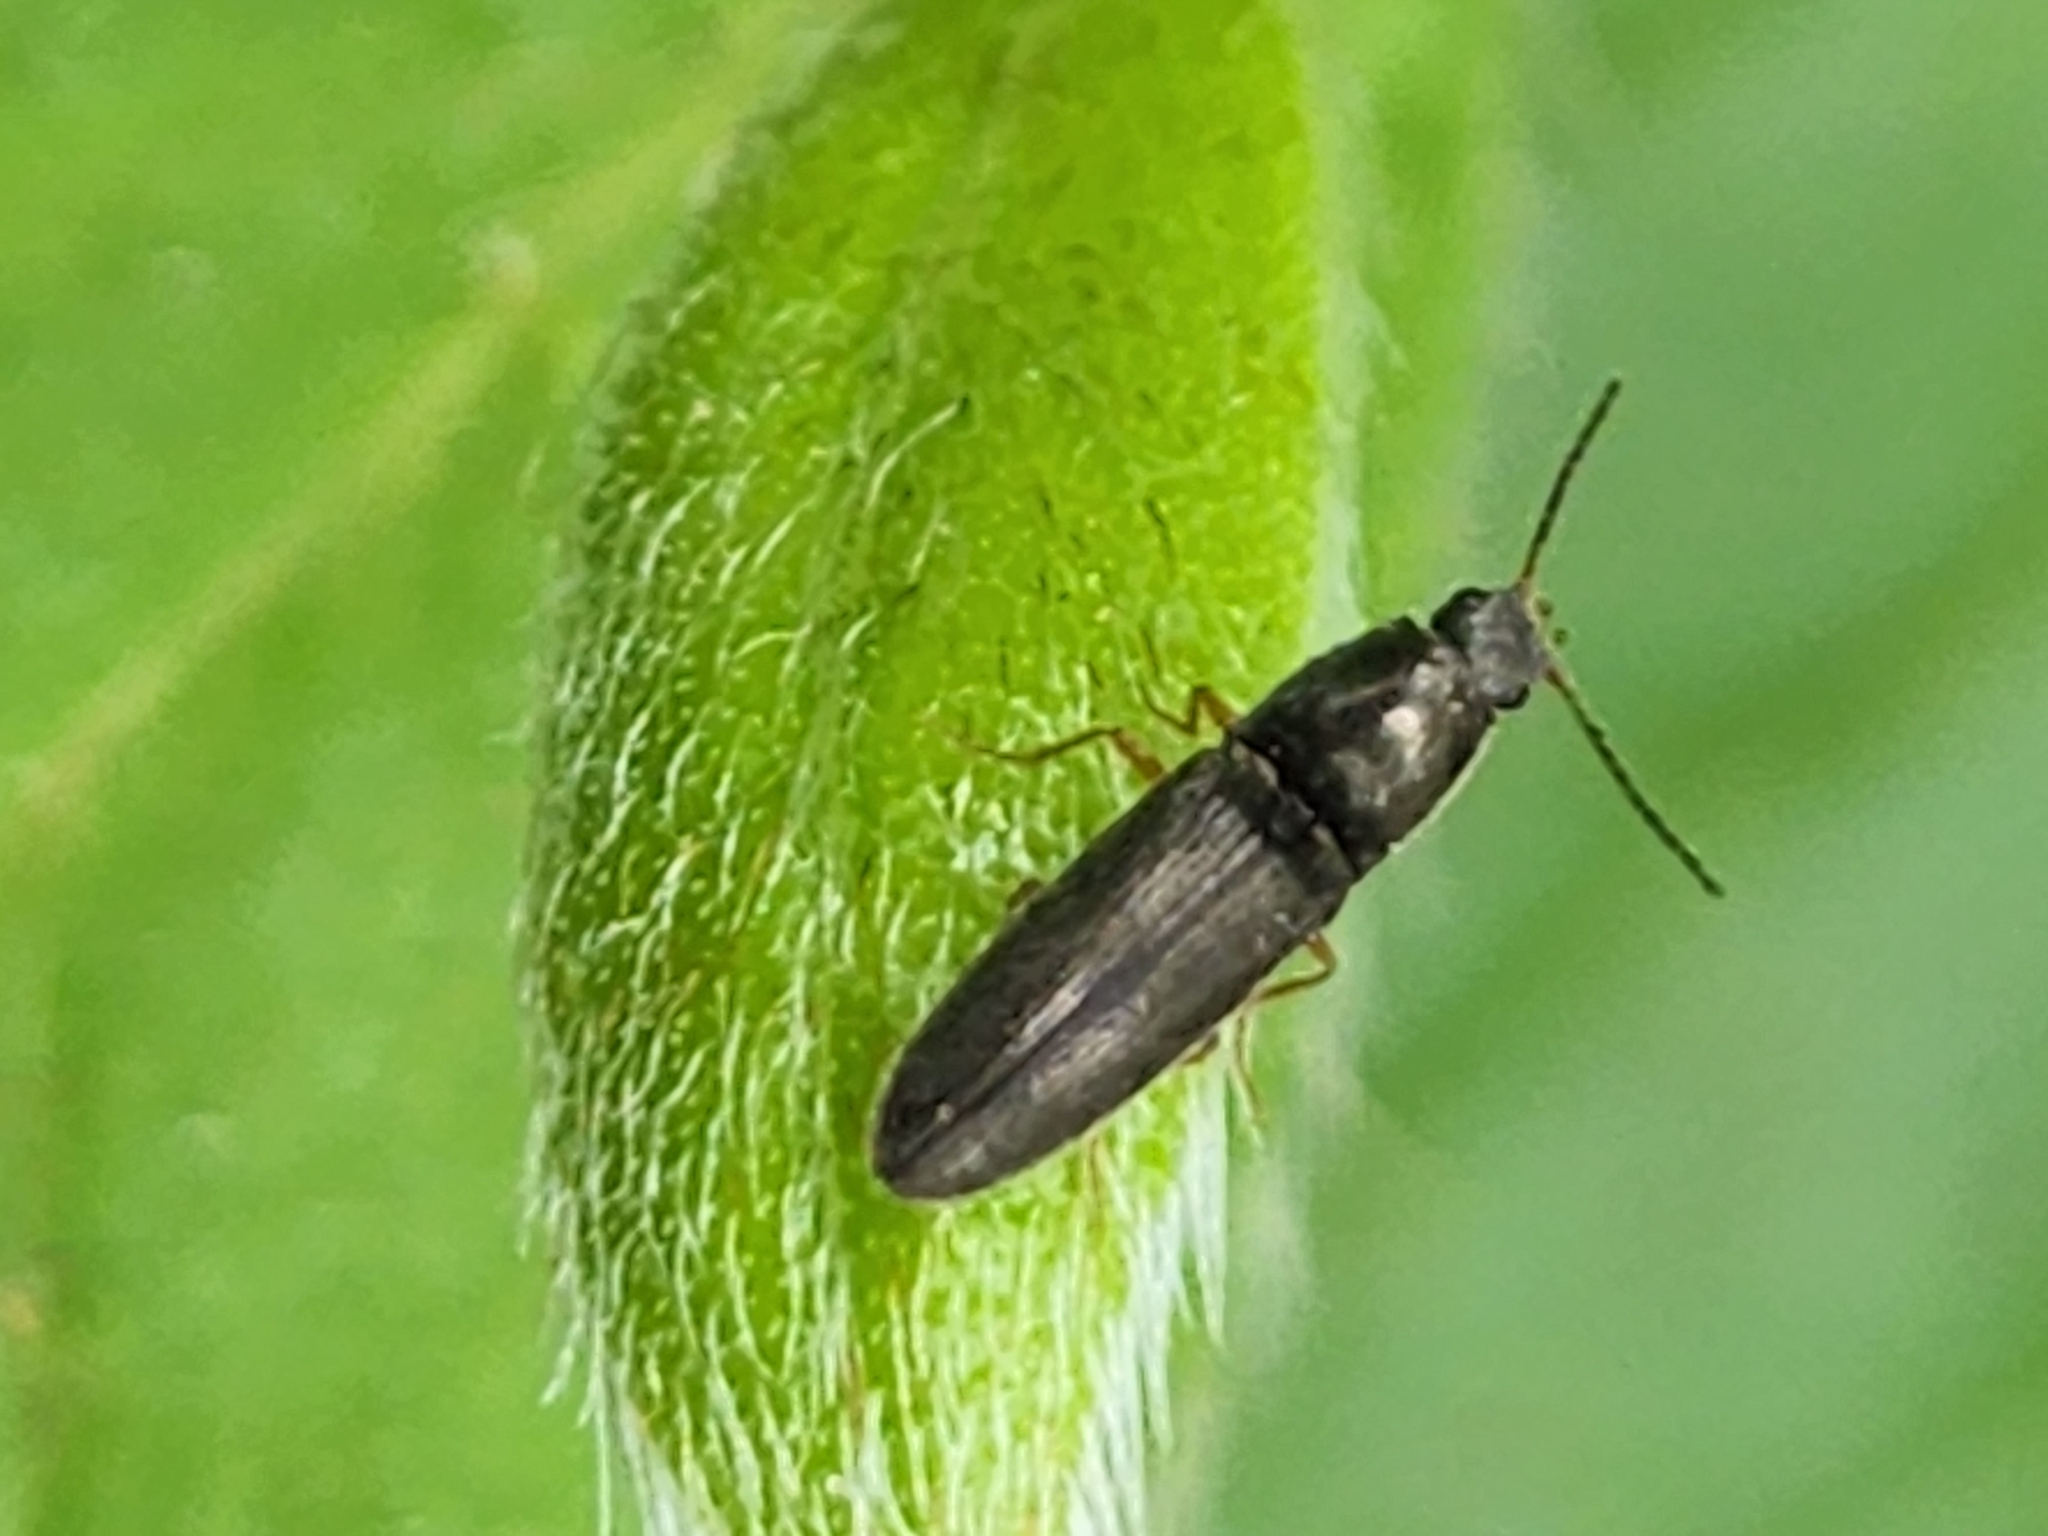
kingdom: Animalia
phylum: Arthropoda
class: Insecta
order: Coleoptera
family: Elateridae
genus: Limonius
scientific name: Limonius quercinus
